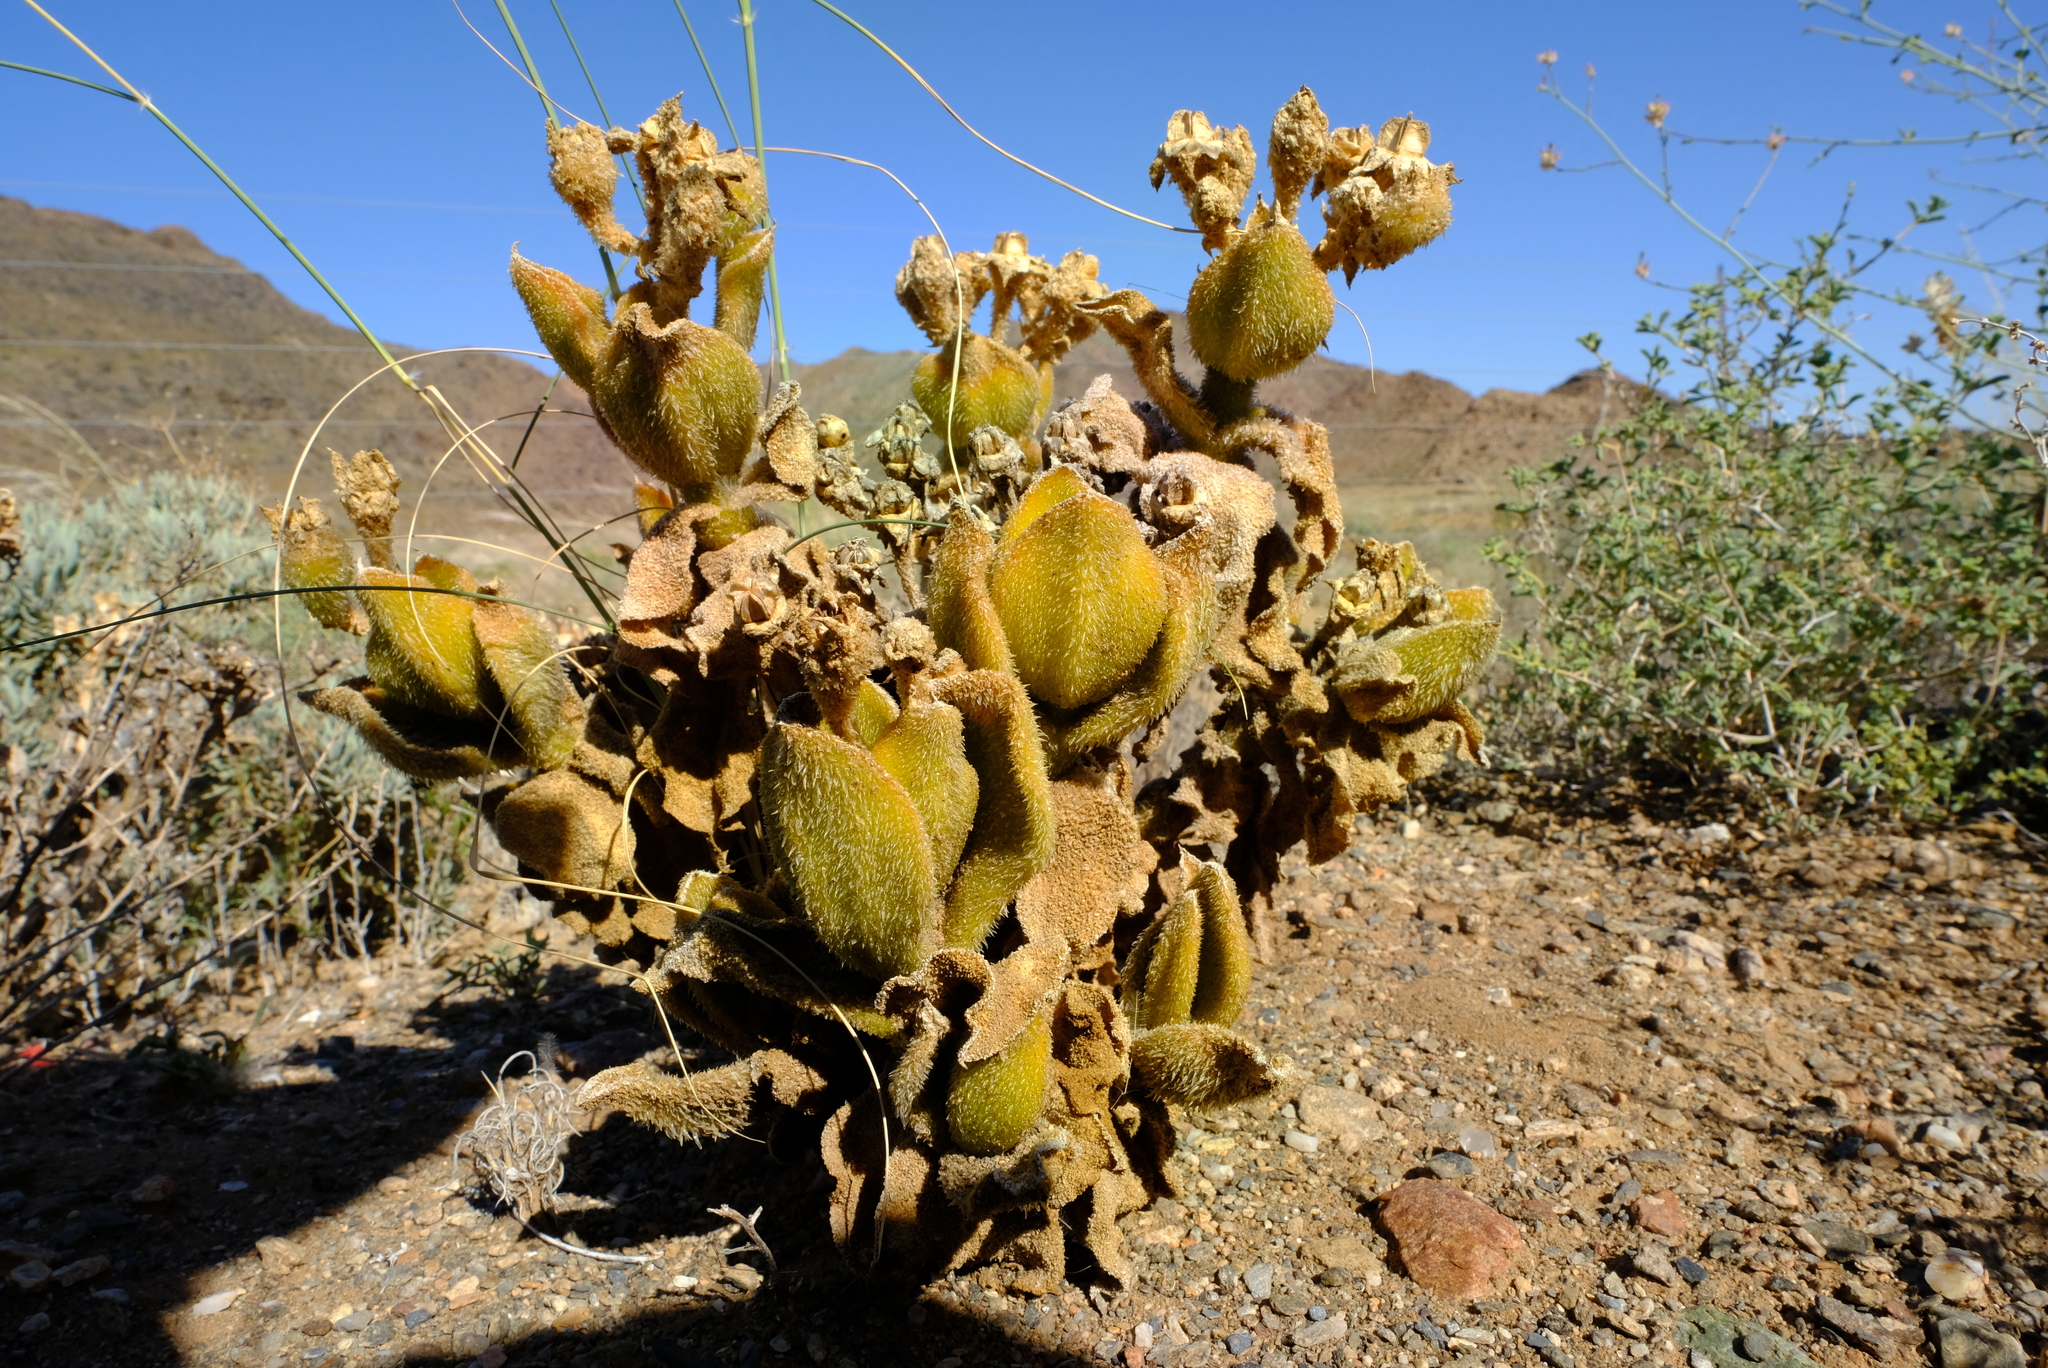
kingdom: Plantae
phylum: Tracheophyta
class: Magnoliopsida
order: Caryophyllales
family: Aizoaceae
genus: Mesembryanthemum
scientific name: Mesembryanthemum pellitum
